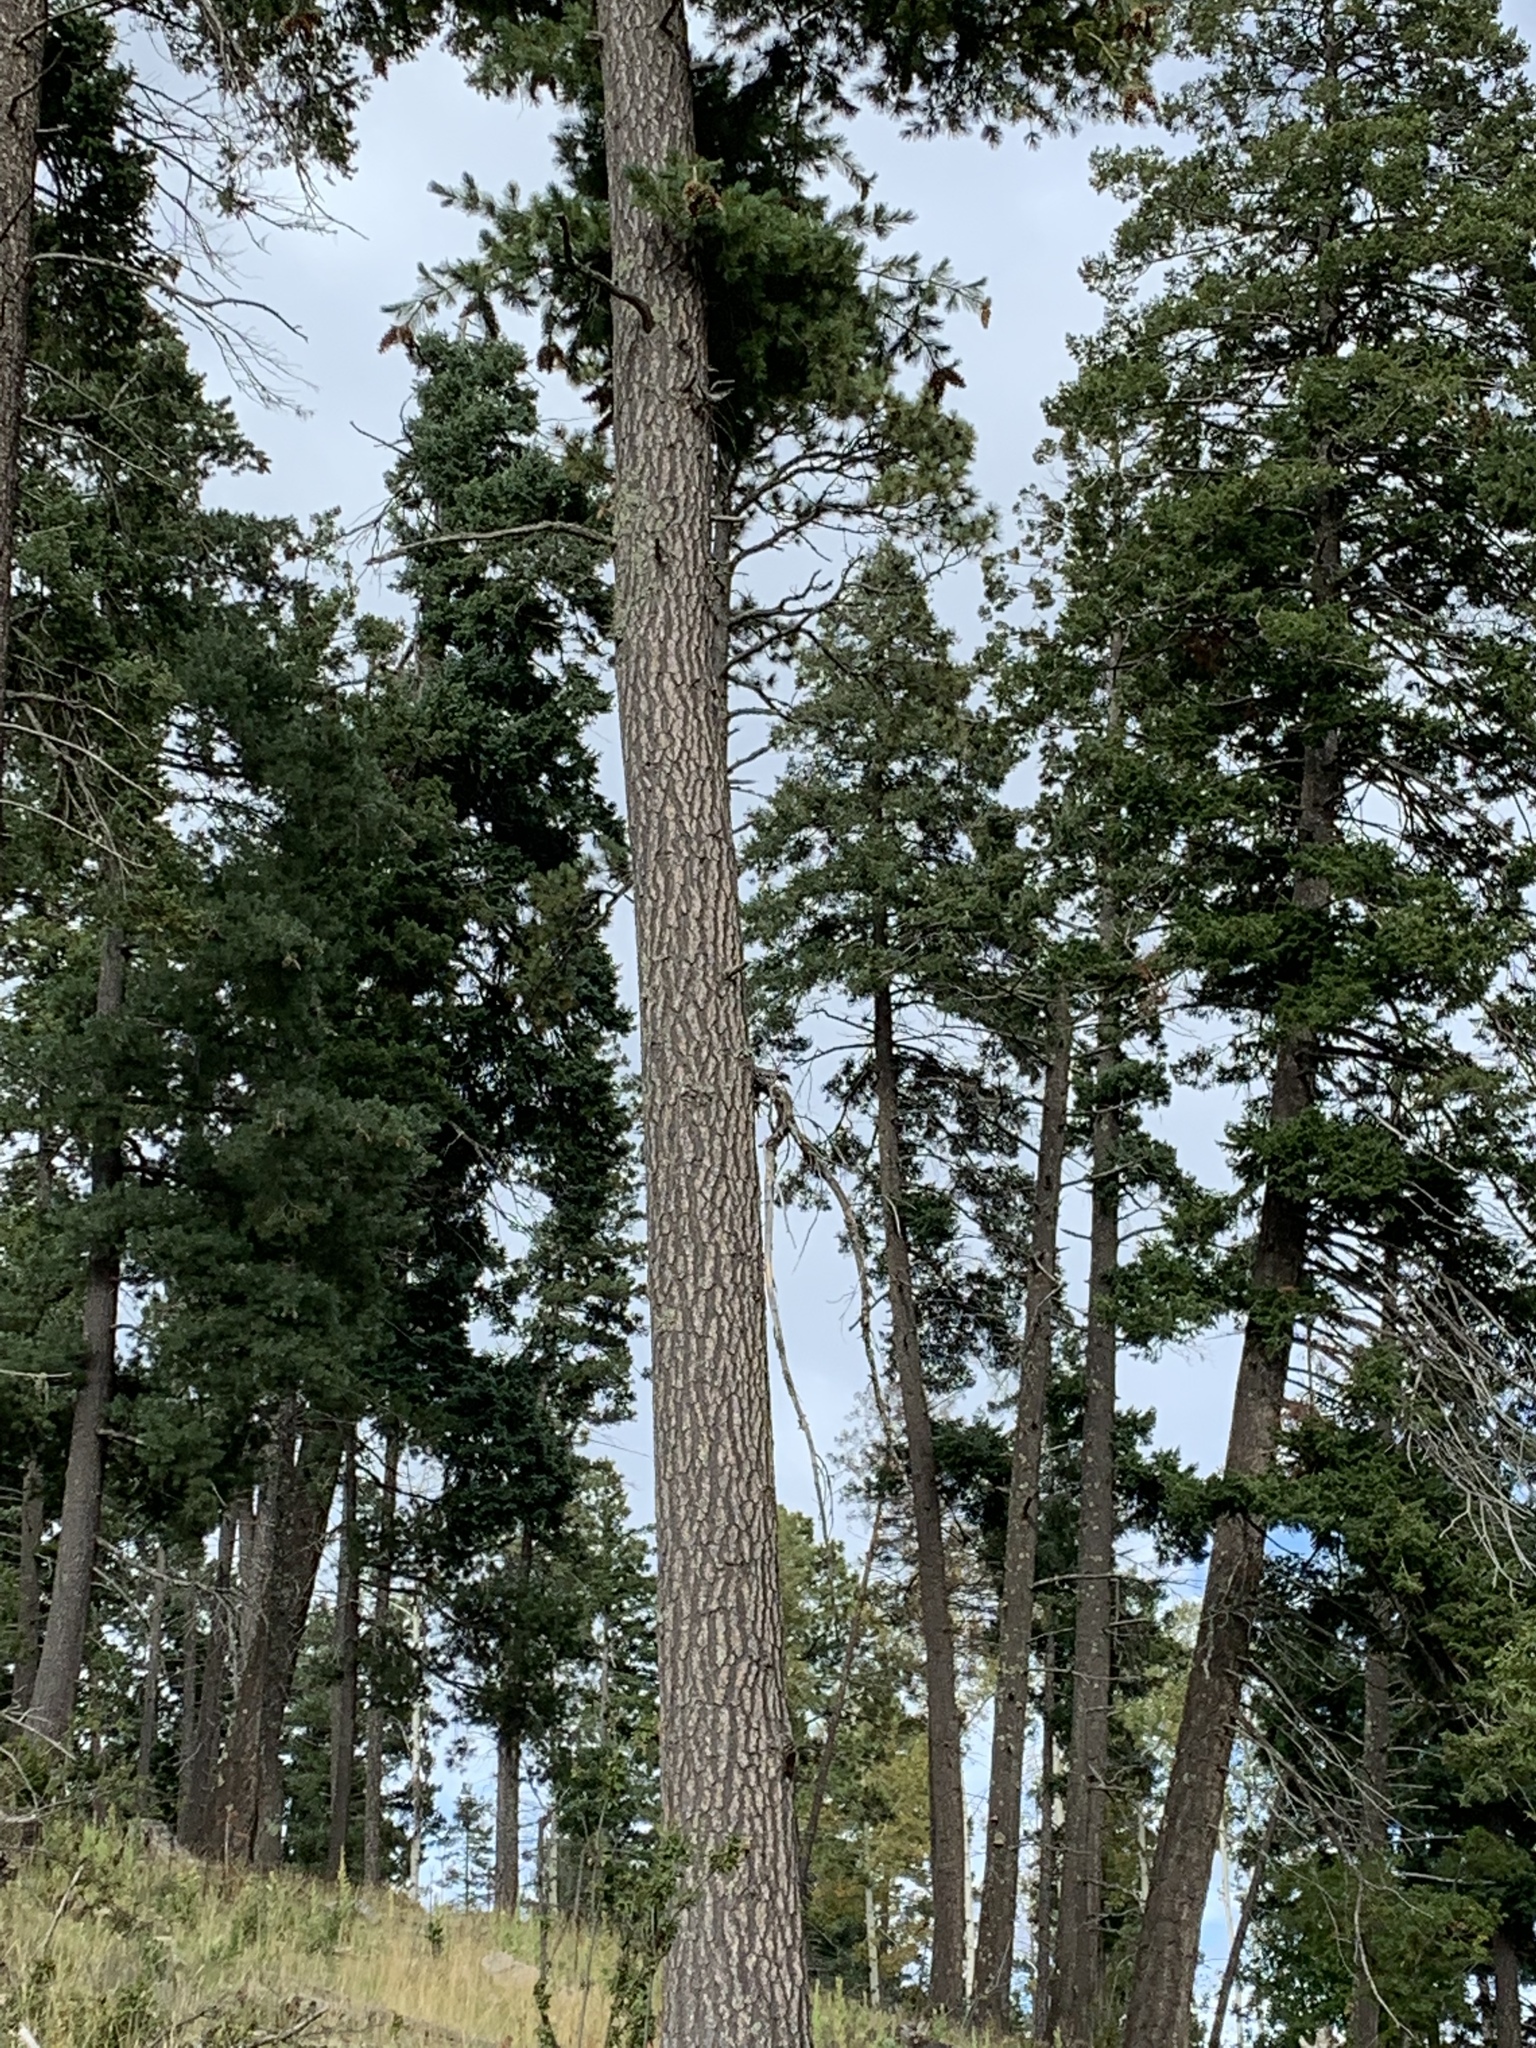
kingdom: Plantae
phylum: Tracheophyta
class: Pinopsida
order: Pinales
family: Pinaceae
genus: Pseudotsuga
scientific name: Pseudotsuga menziesii
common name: Douglas fir
